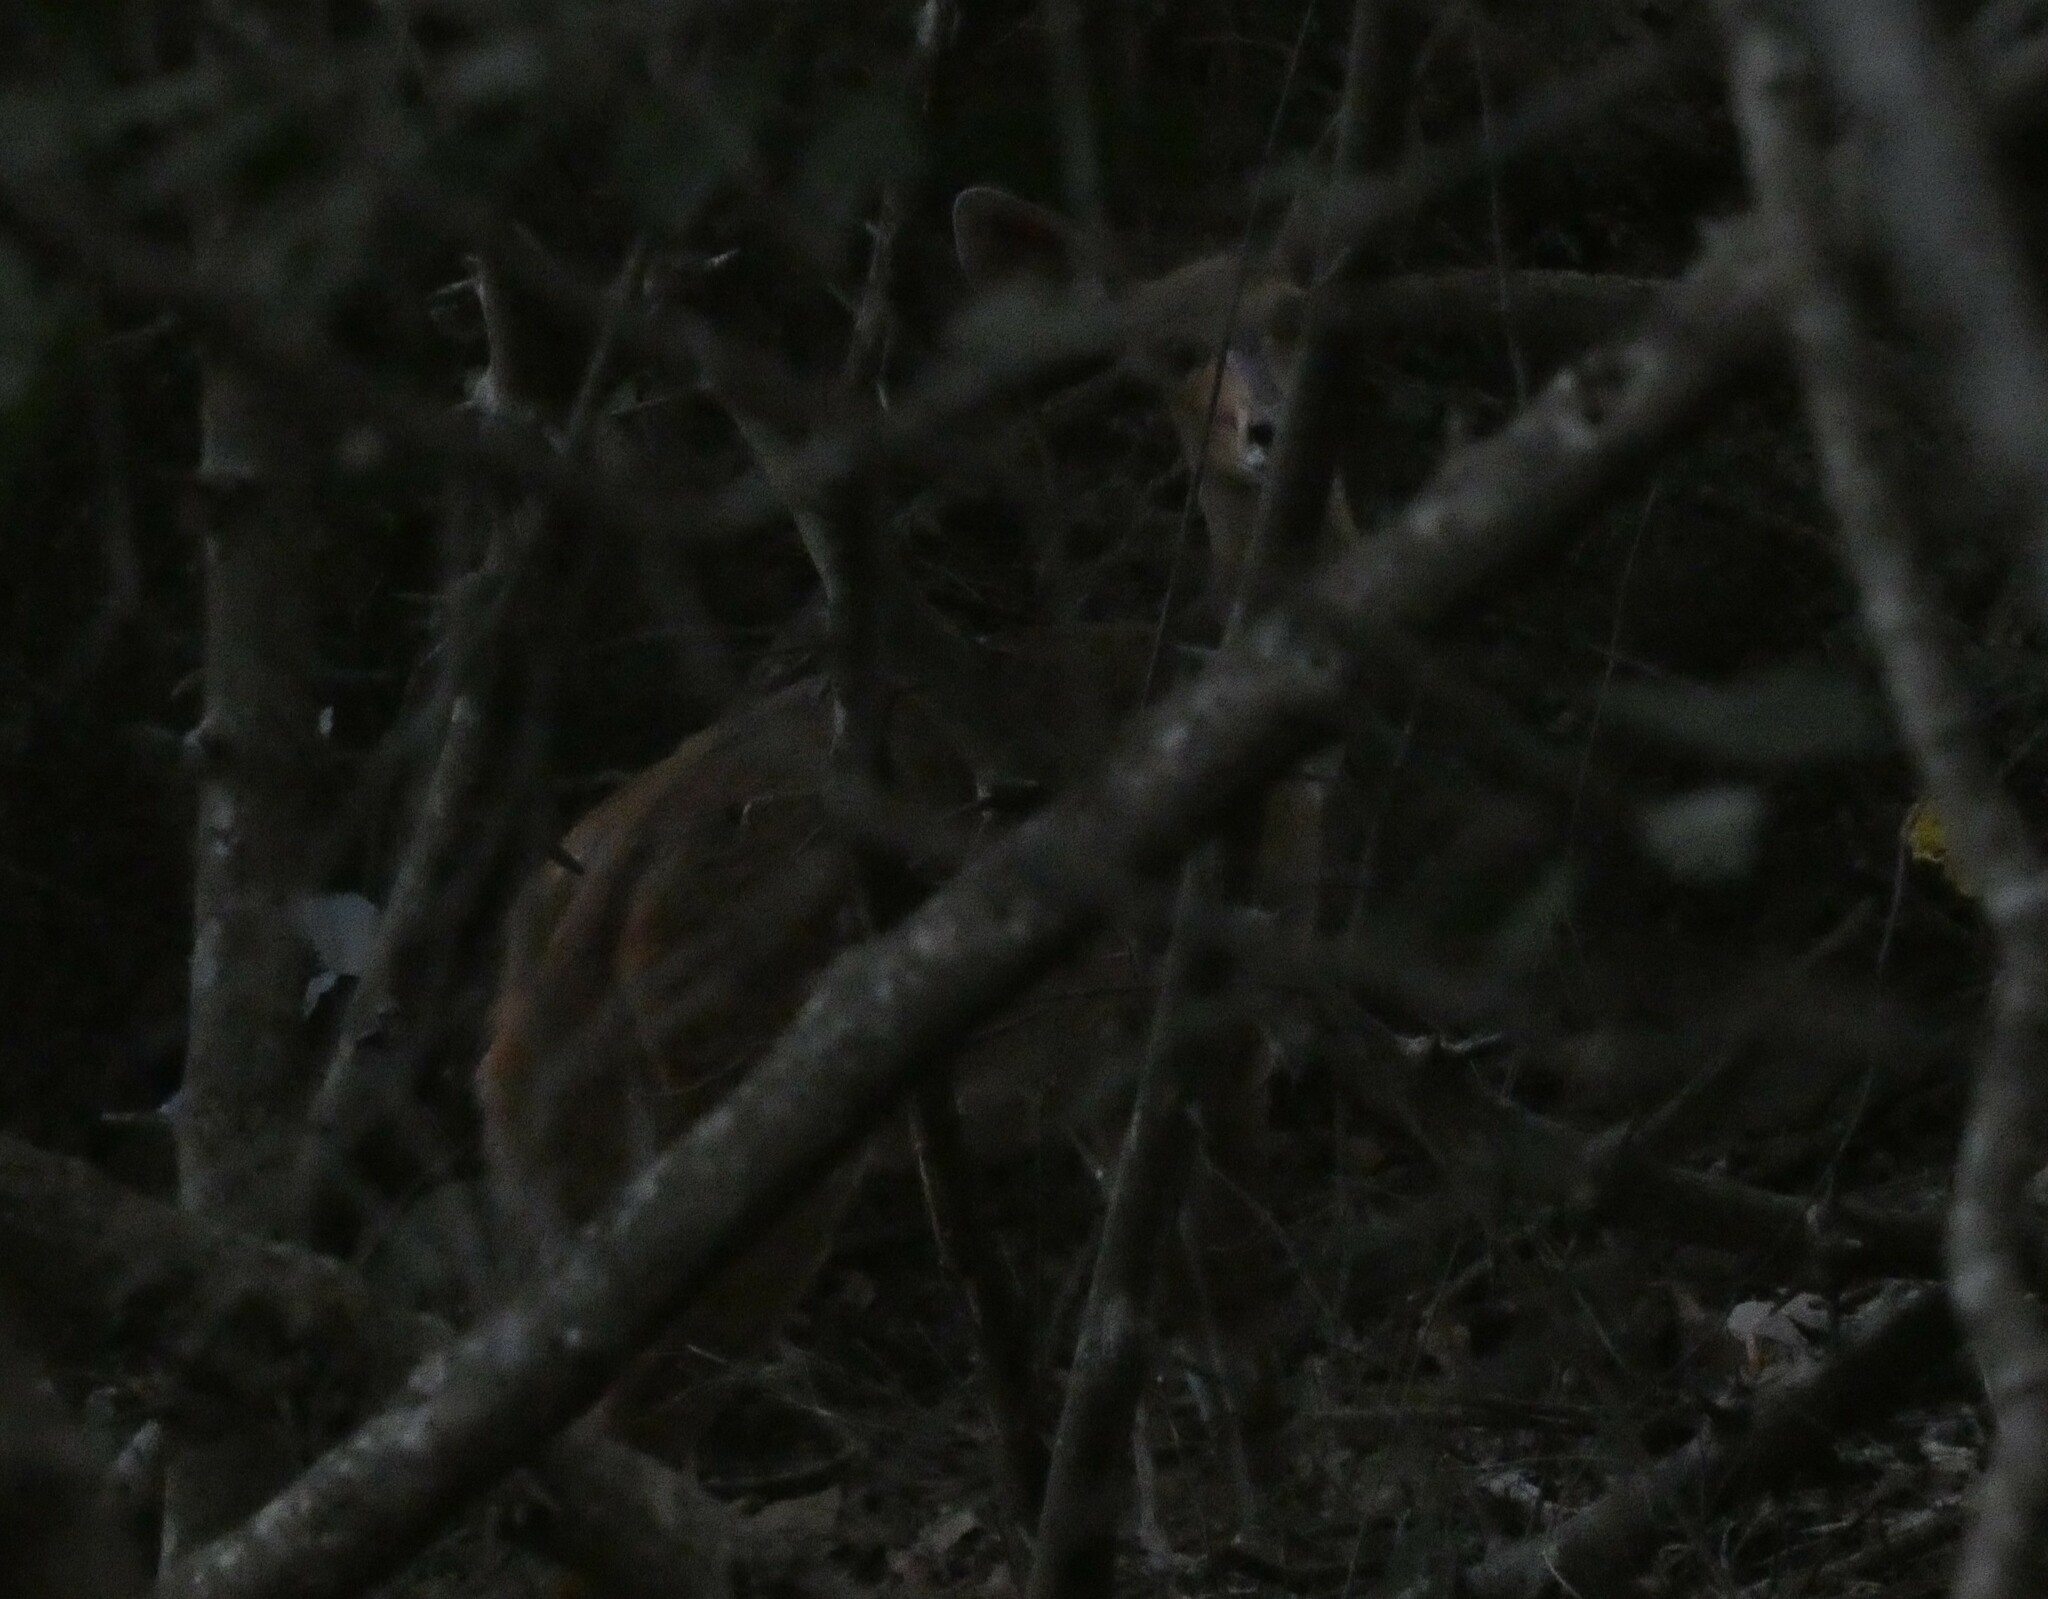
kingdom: Animalia
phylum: Chordata
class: Mammalia
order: Artiodactyla
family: Bovidae
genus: Tragelaphus
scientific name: Tragelaphus scriptus
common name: Bushbuck
